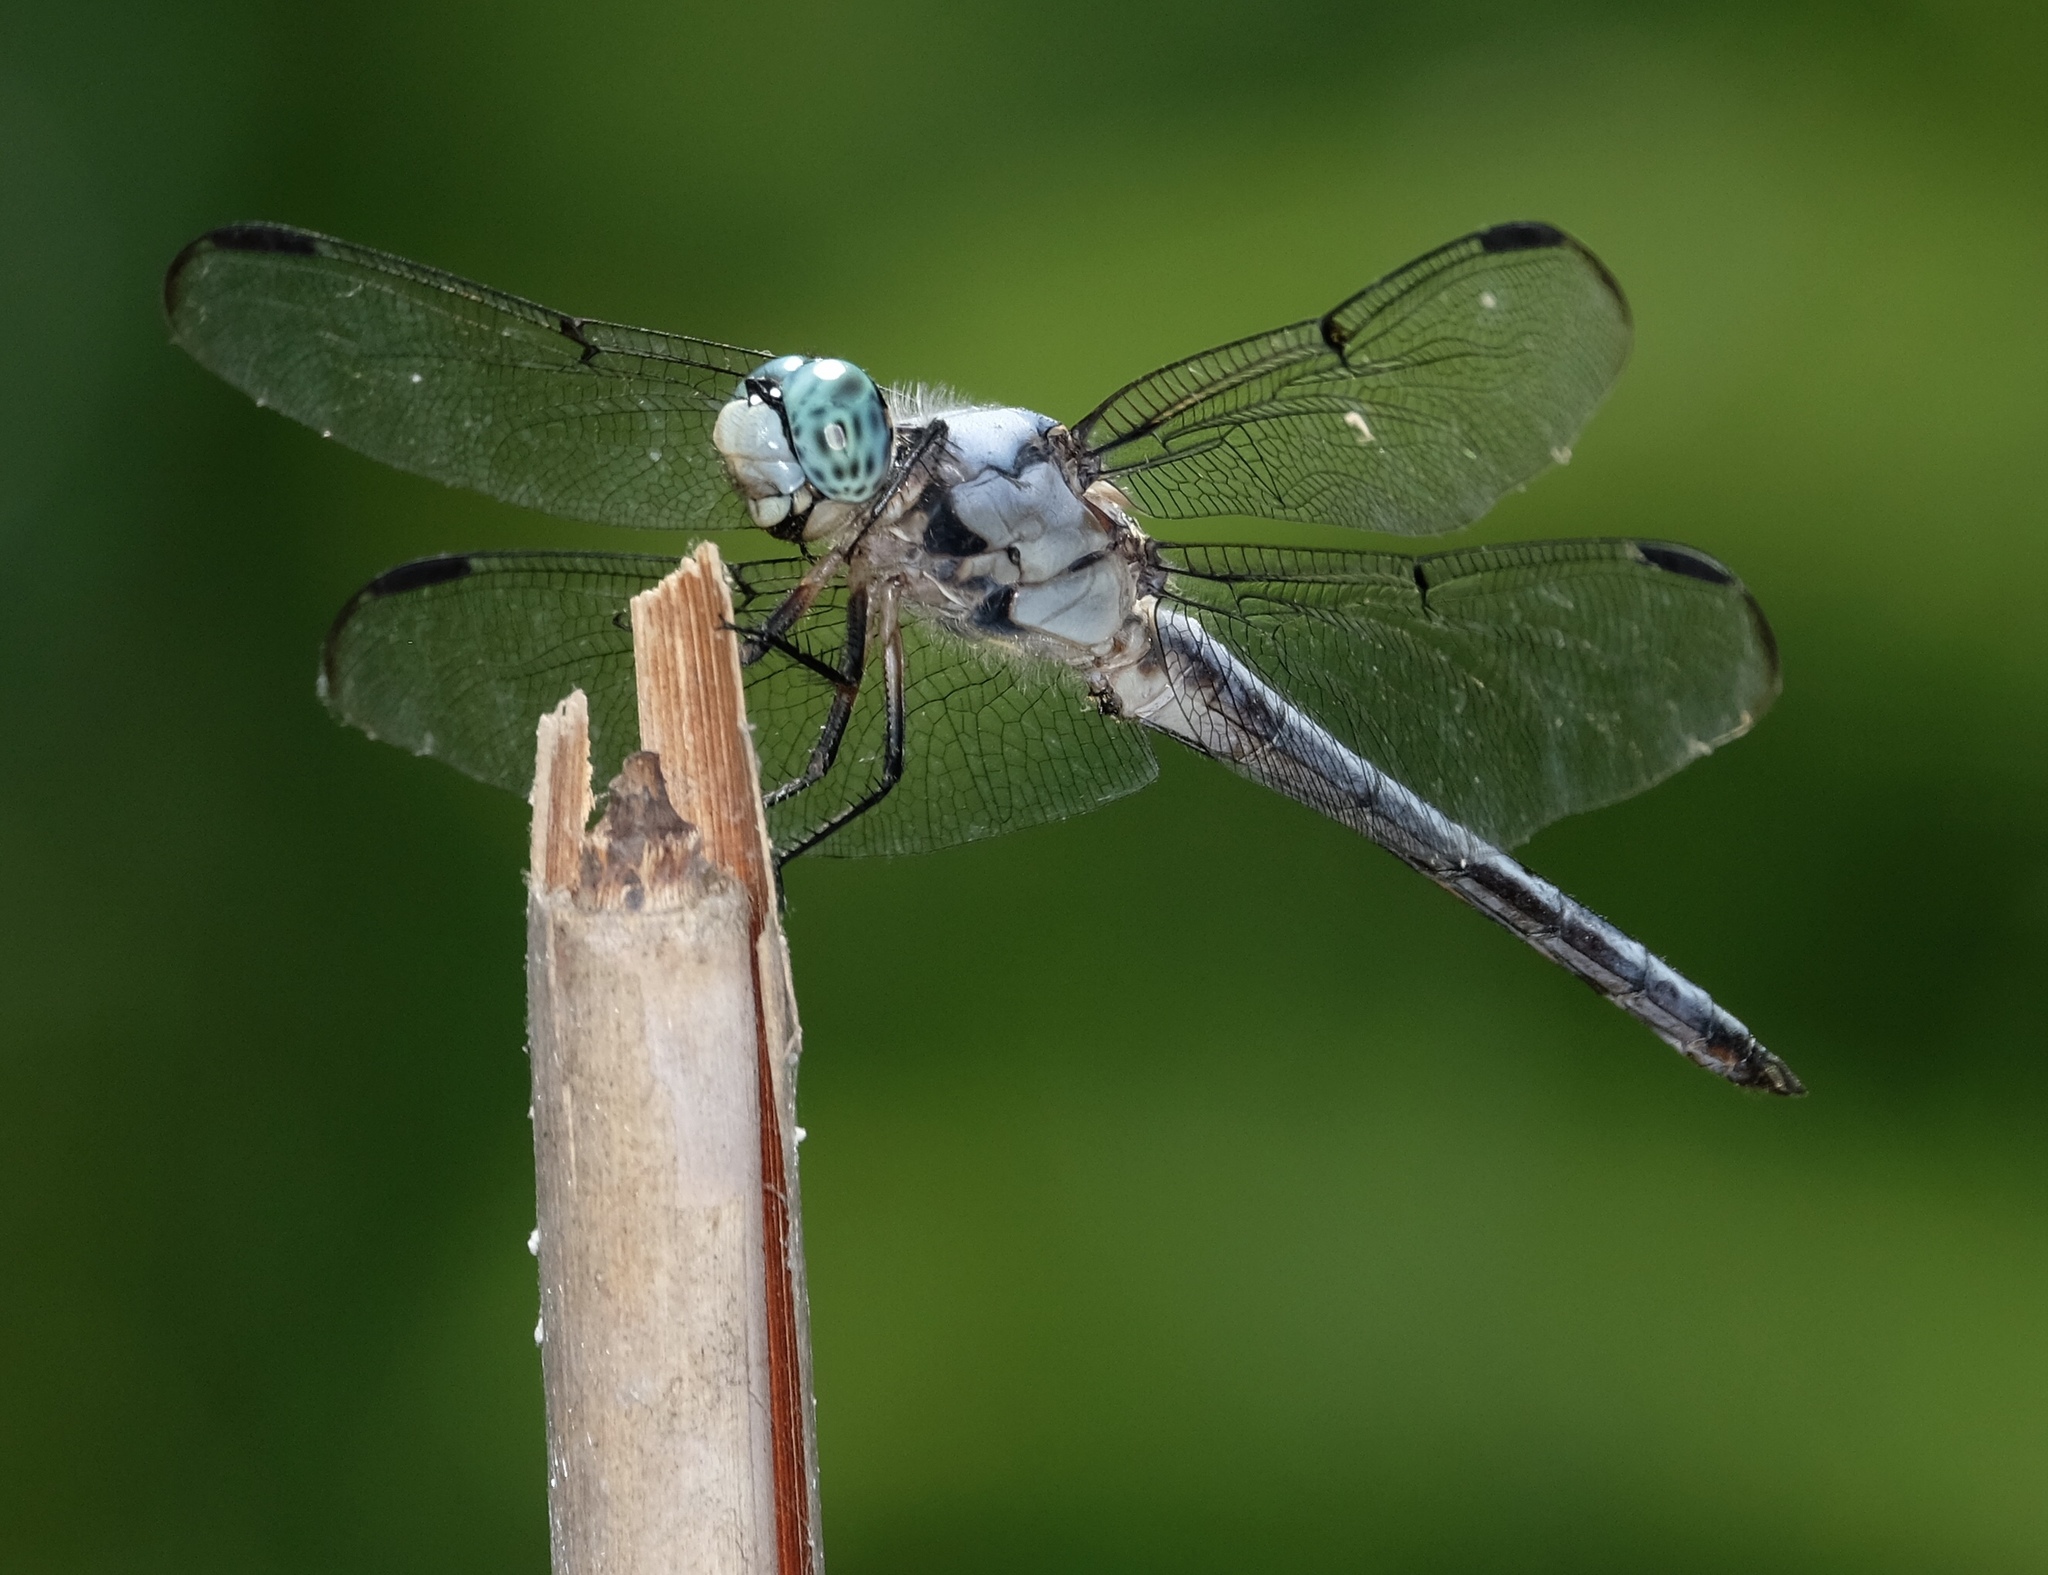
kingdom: Animalia
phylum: Arthropoda
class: Insecta
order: Odonata
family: Libellulidae
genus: Libellula
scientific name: Libellula vibrans
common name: Great blue skimmer
